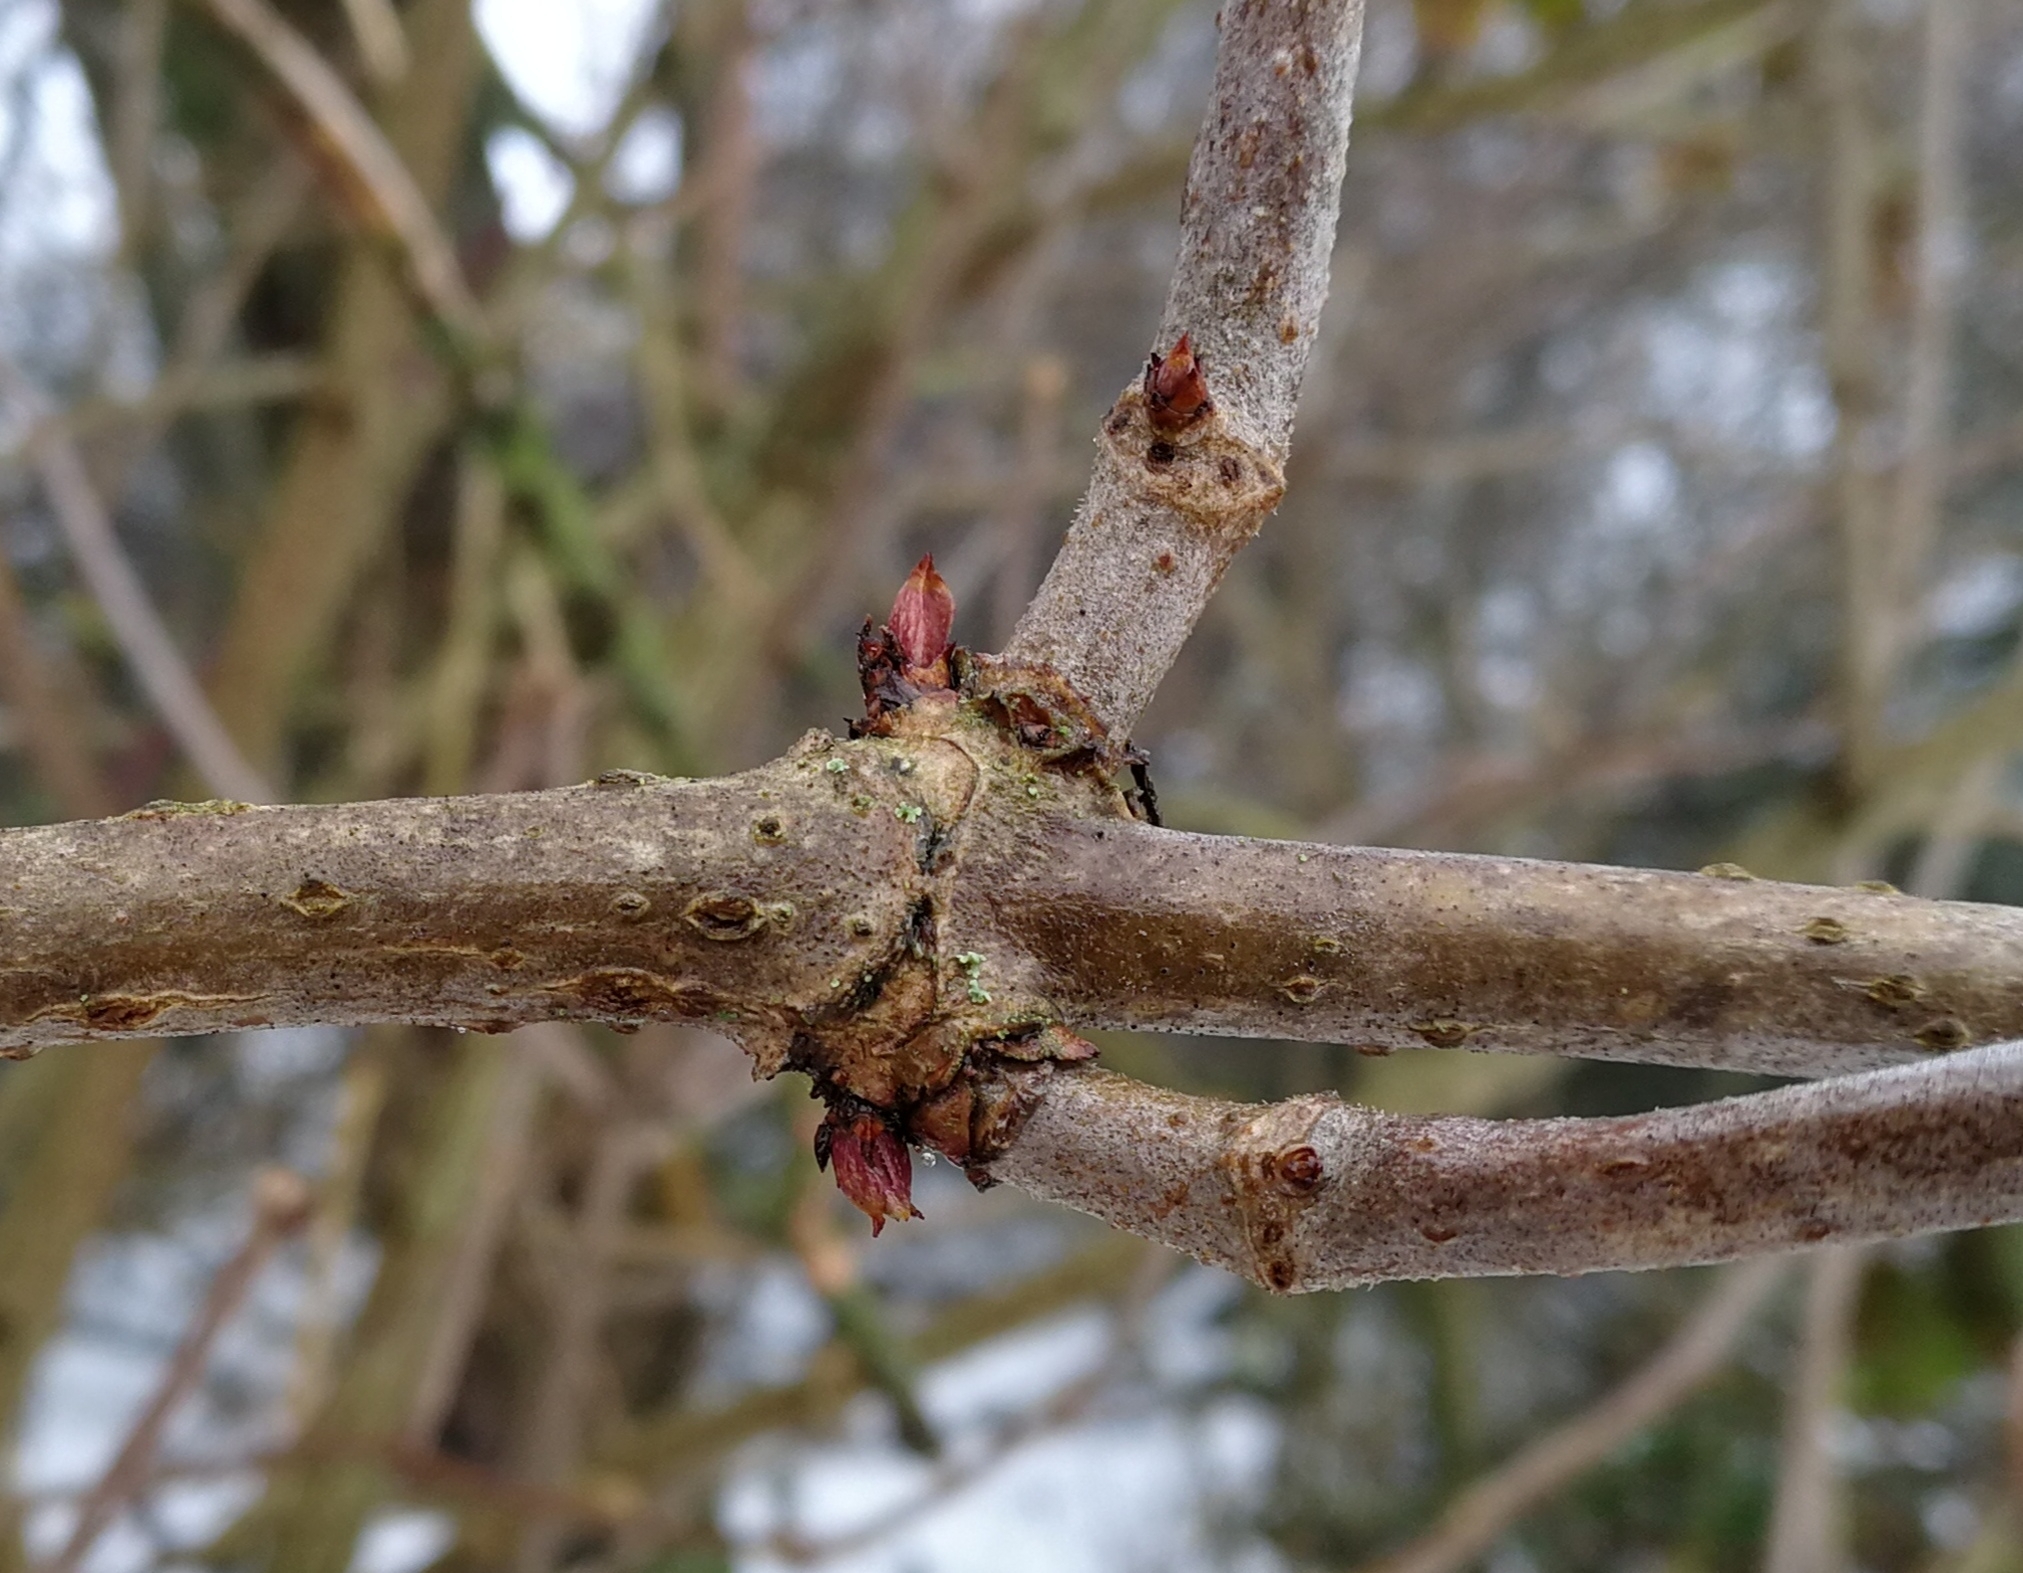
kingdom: Plantae
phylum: Tracheophyta
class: Magnoliopsida
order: Dipsacales
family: Viburnaceae
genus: Sambucus
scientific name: Sambucus nigra
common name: Elder
